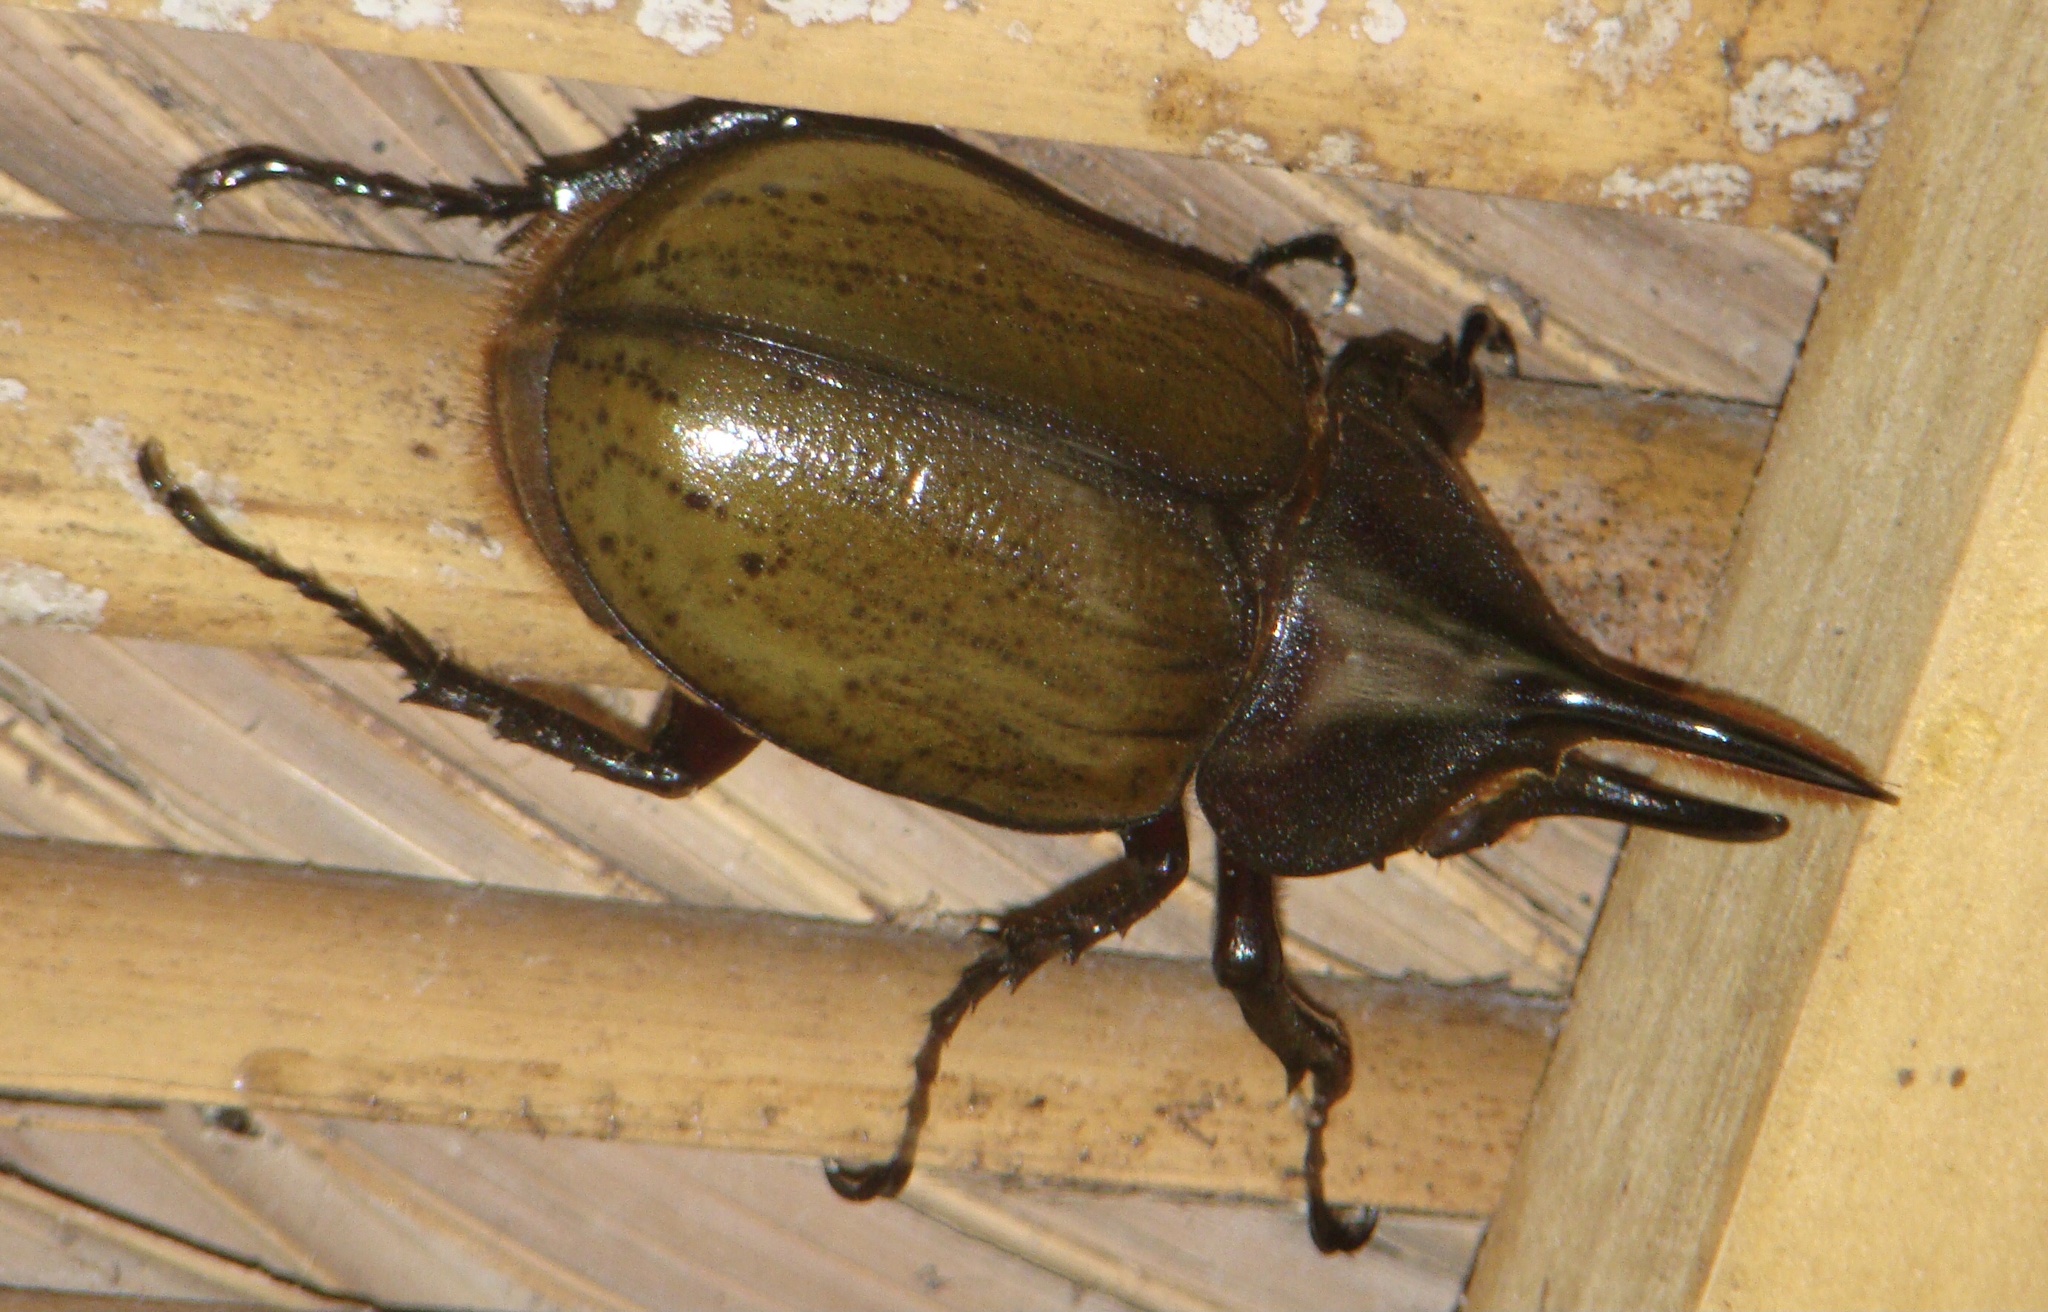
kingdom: Animalia
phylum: Arthropoda
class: Insecta
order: Coleoptera
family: Scarabaeidae
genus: Dynastes
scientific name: Dynastes
